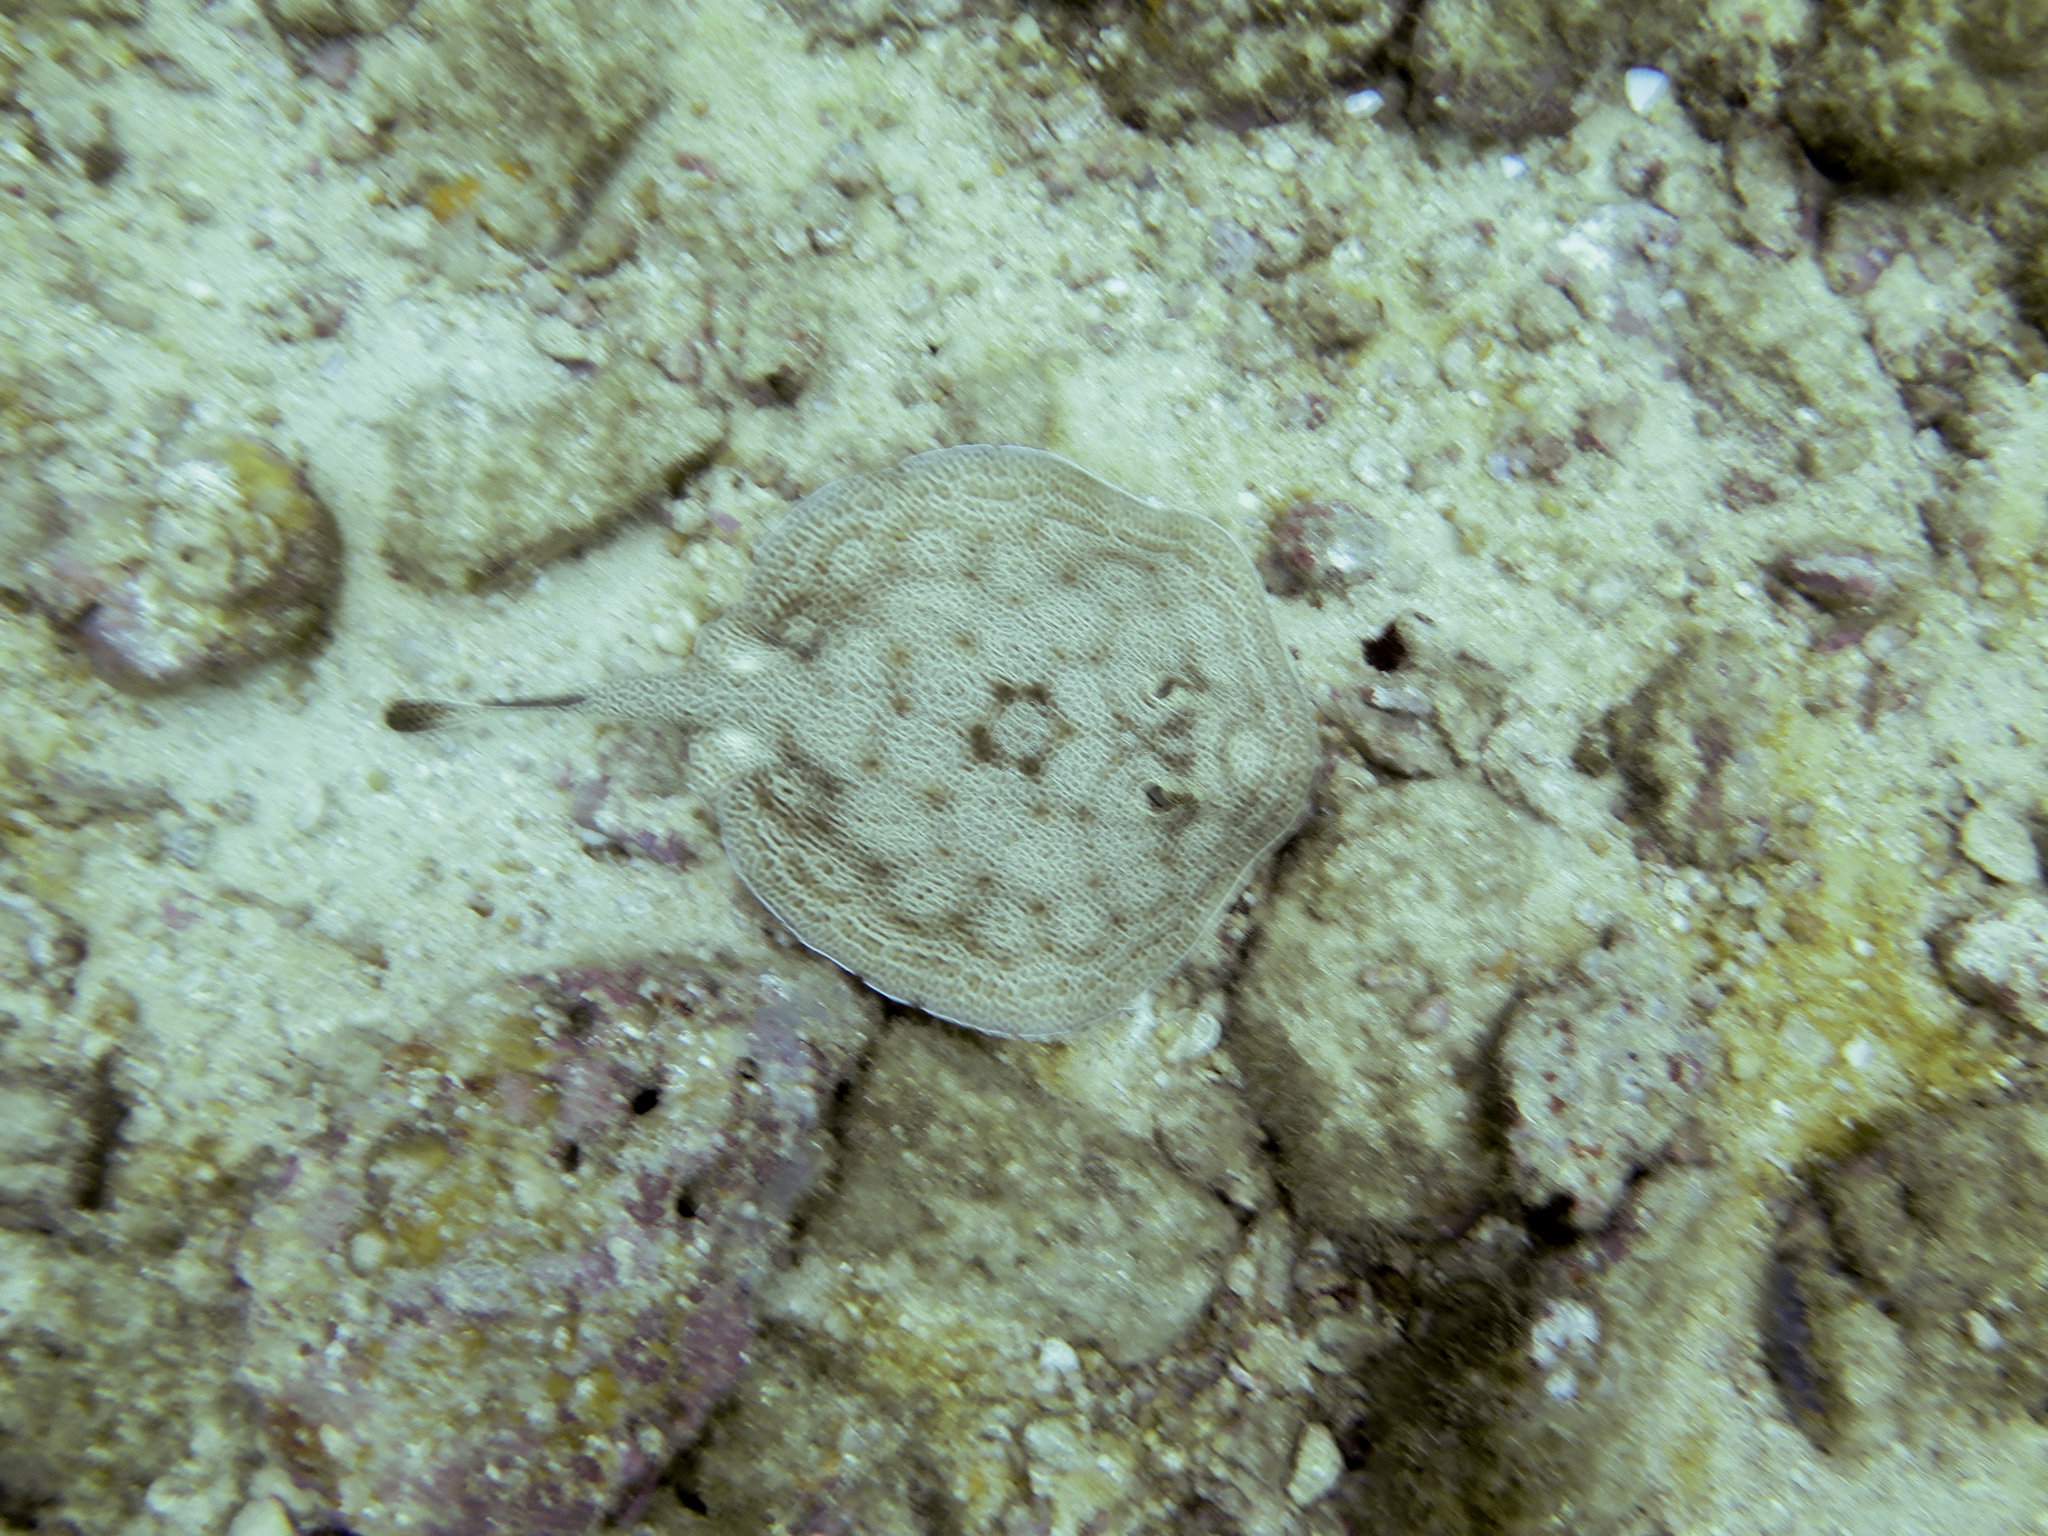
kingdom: Animalia
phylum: Chordata
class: Elasmobranchii
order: Myliobatiformes
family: Urotrygonidae
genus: Urobatis
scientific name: Urobatis pardalis
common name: Leopard round ray
